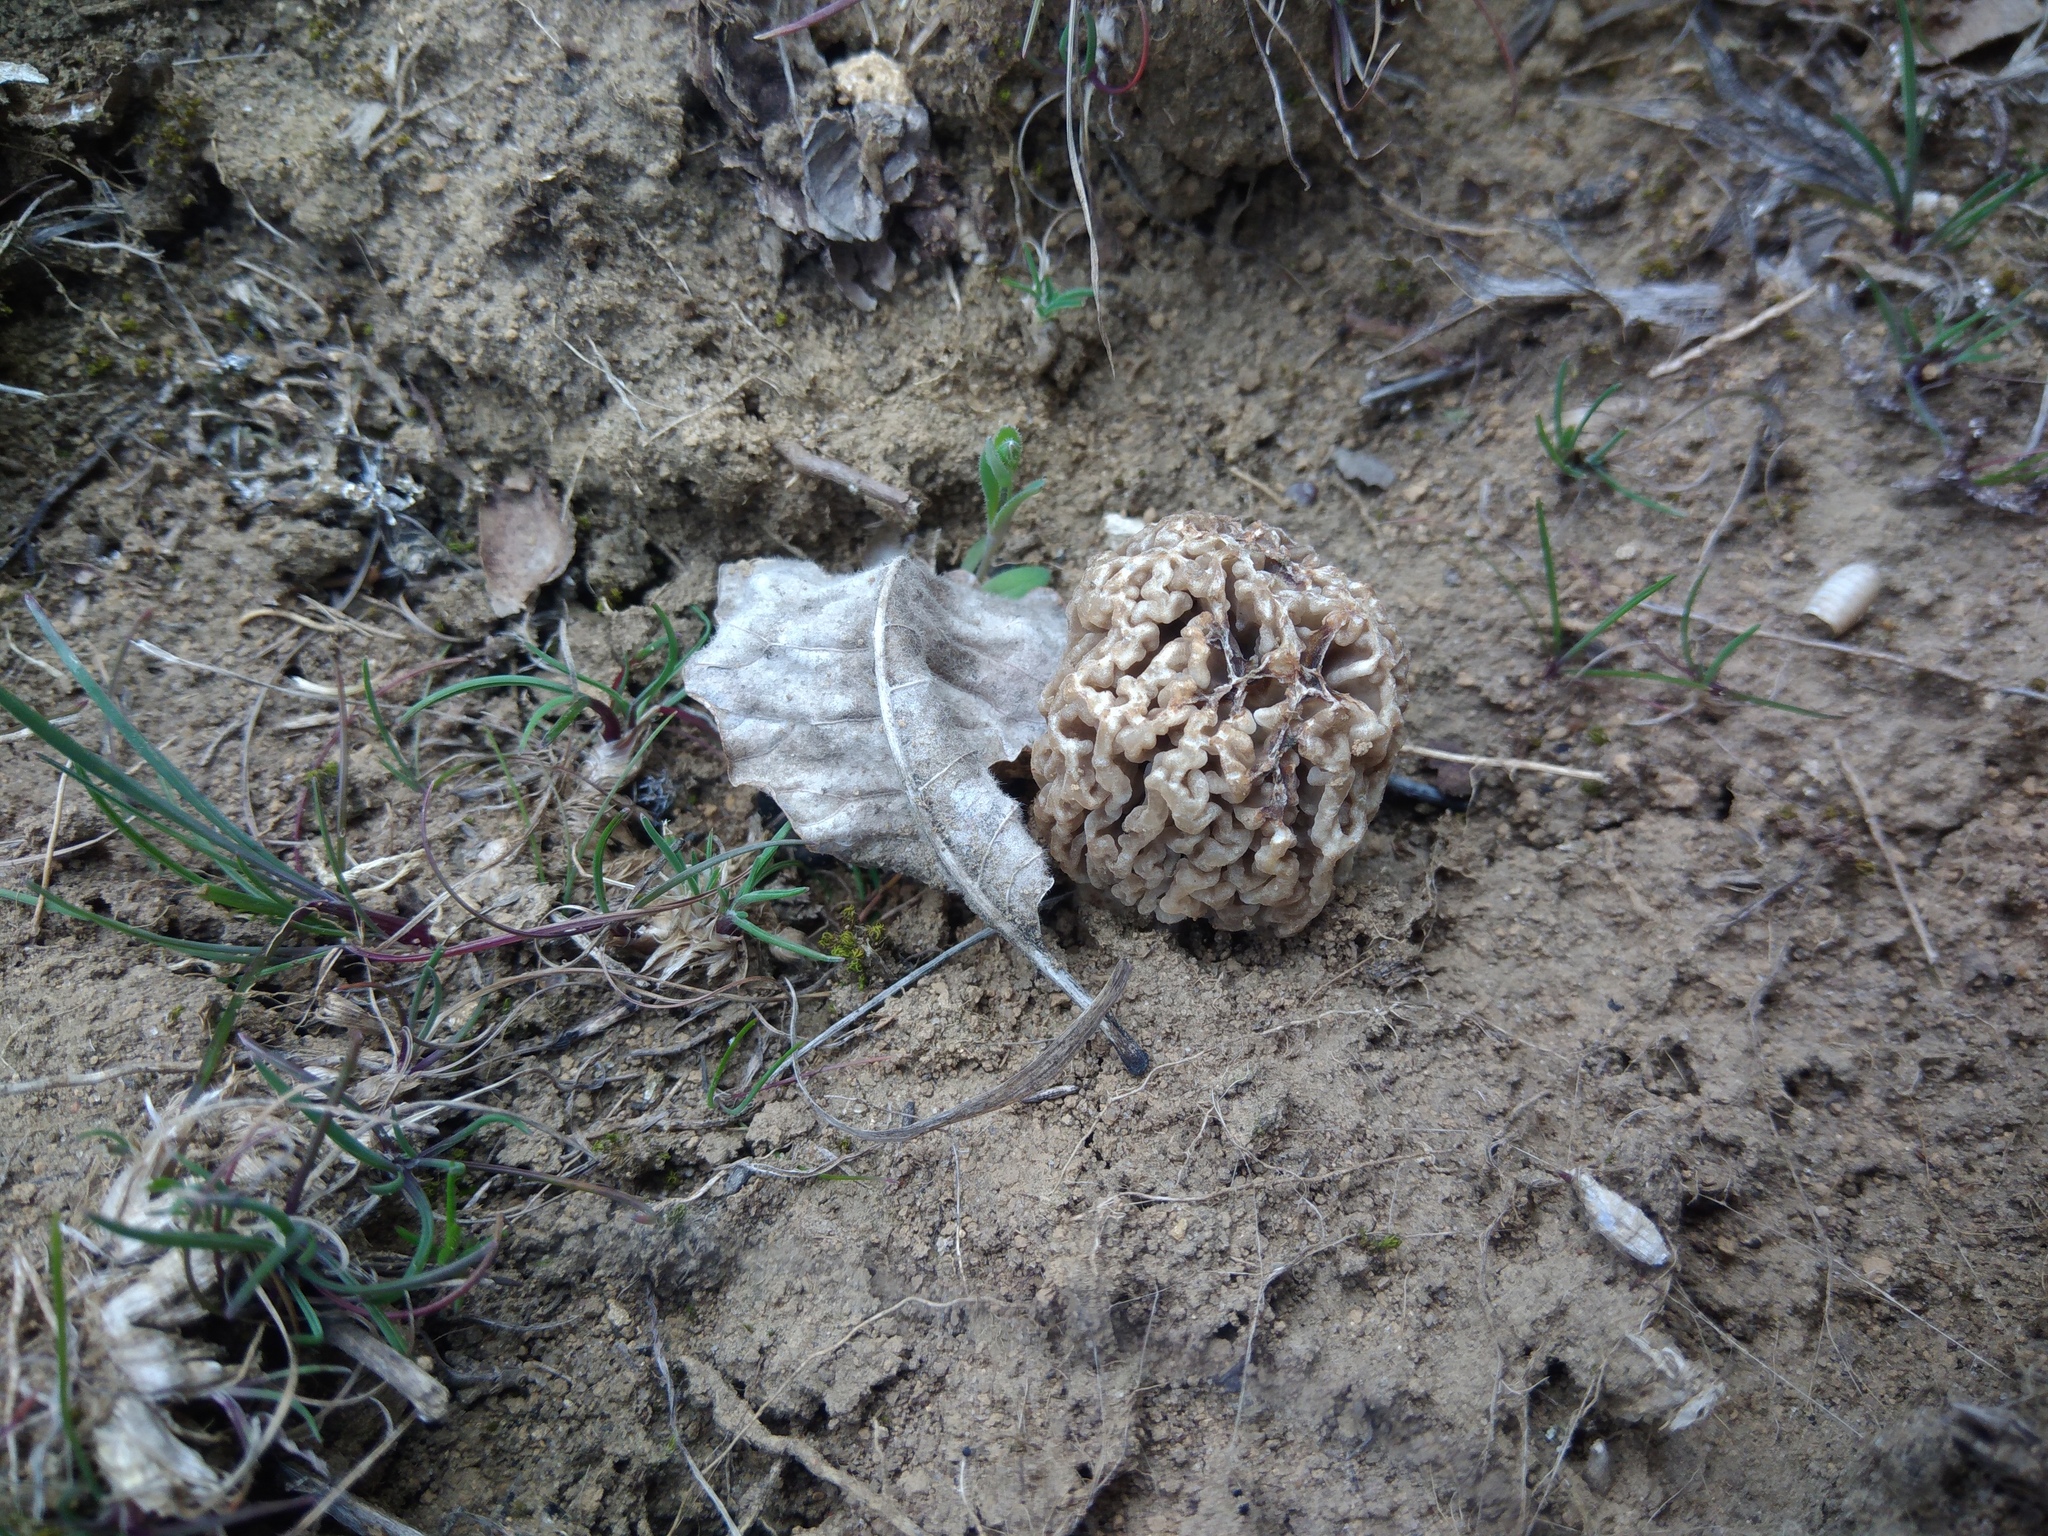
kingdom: Fungi
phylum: Ascomycota
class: Pezizomycetes
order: Pezizales
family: Morchellaceae
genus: Morchella
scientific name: Morchella steppicola
